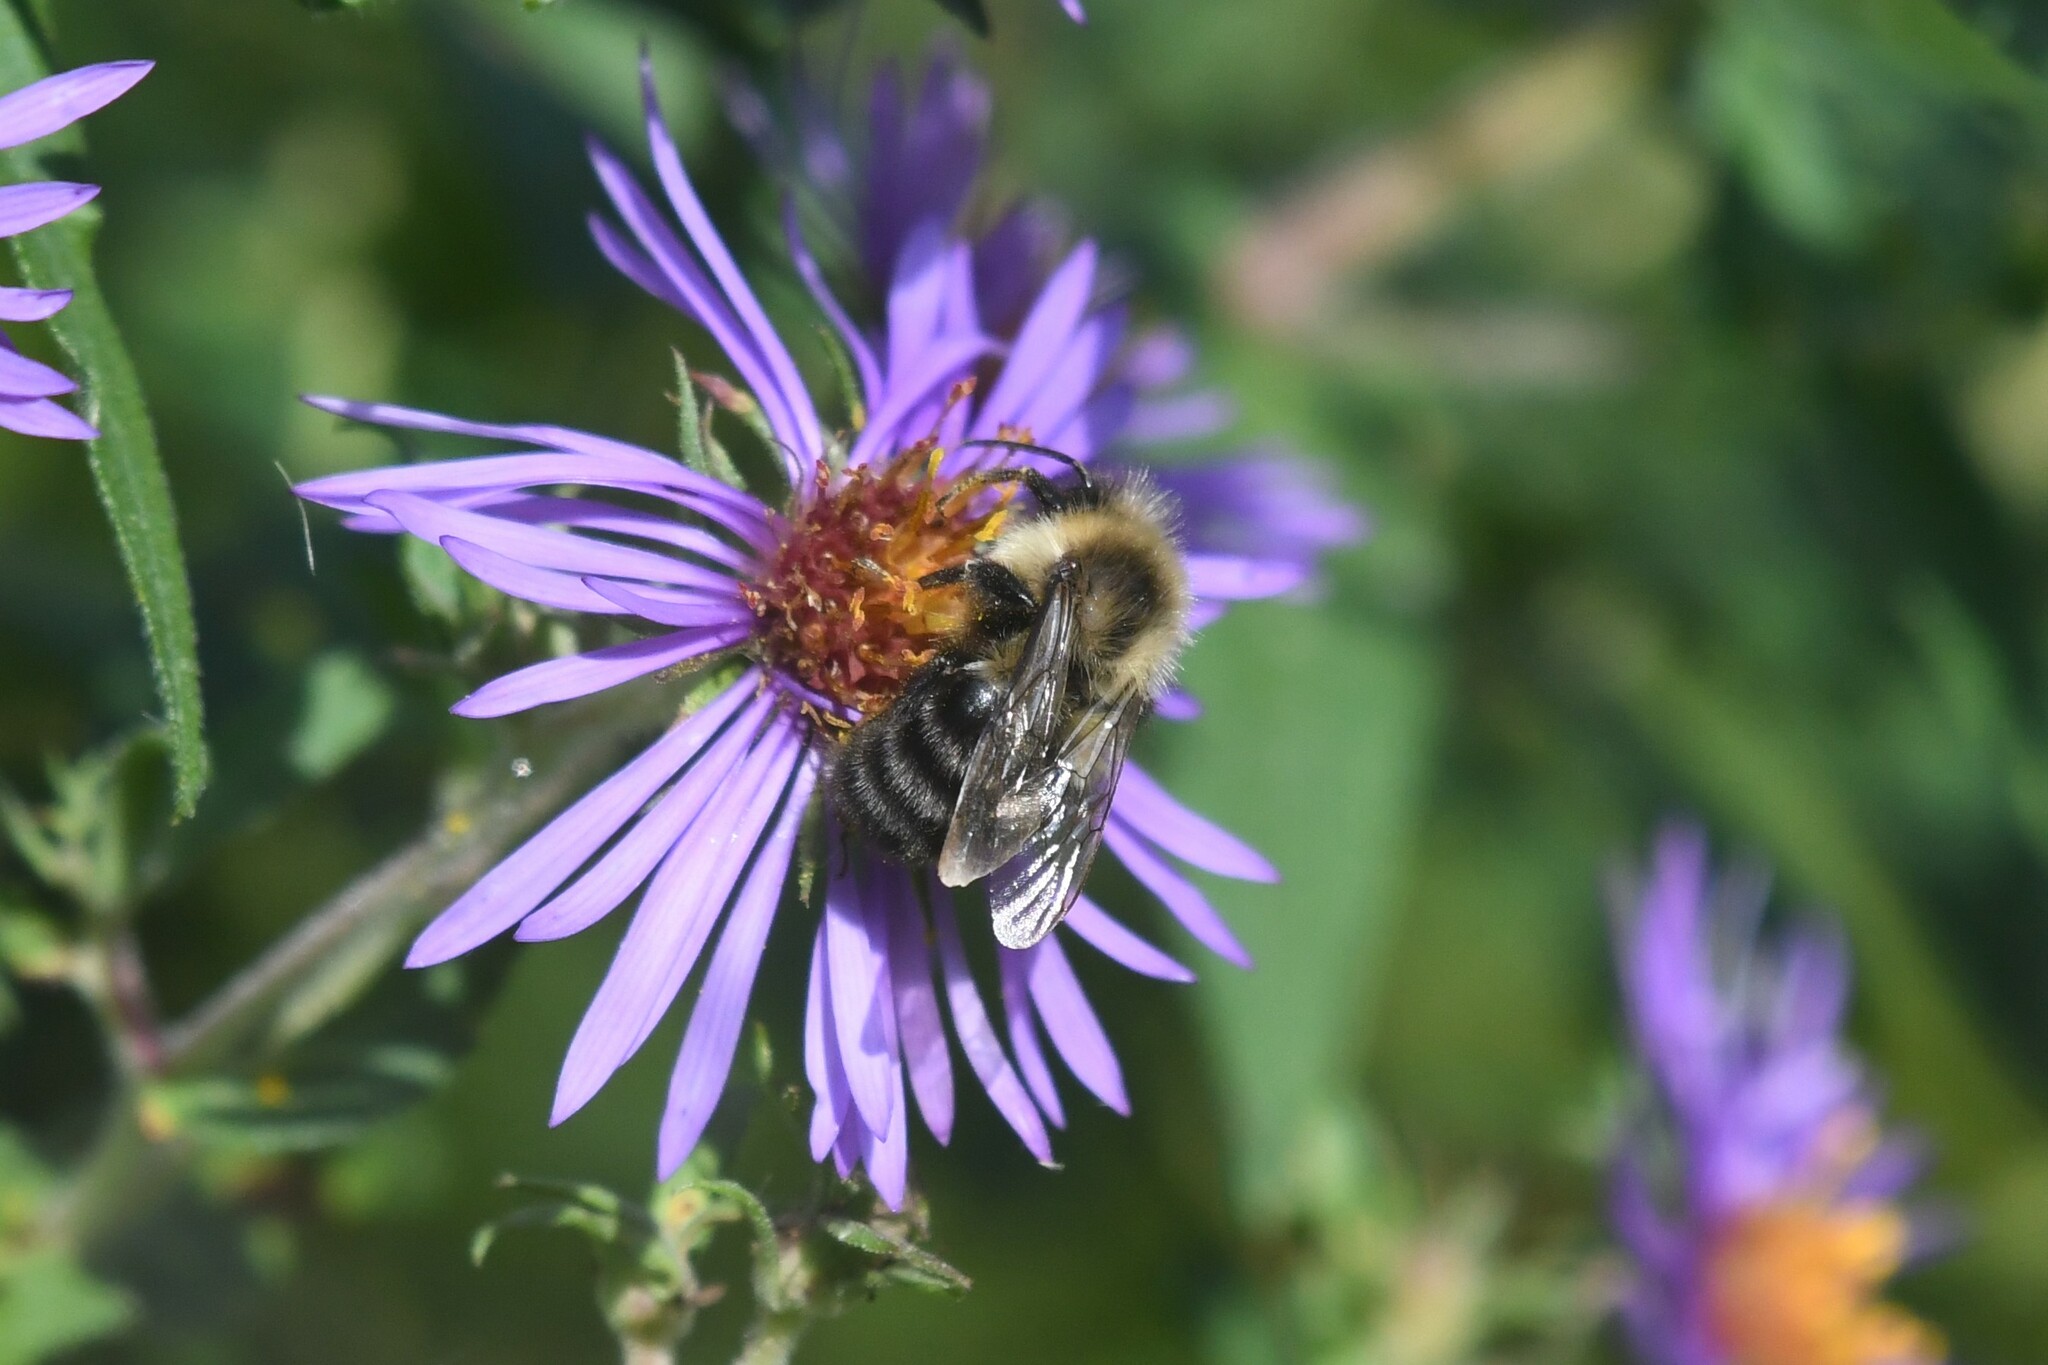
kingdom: Animalia
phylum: Arthropoda
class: Insecta
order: Hymenoptera
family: Apidae
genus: Bombus
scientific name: Bombus impatiens
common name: Common eastern bumble bee
